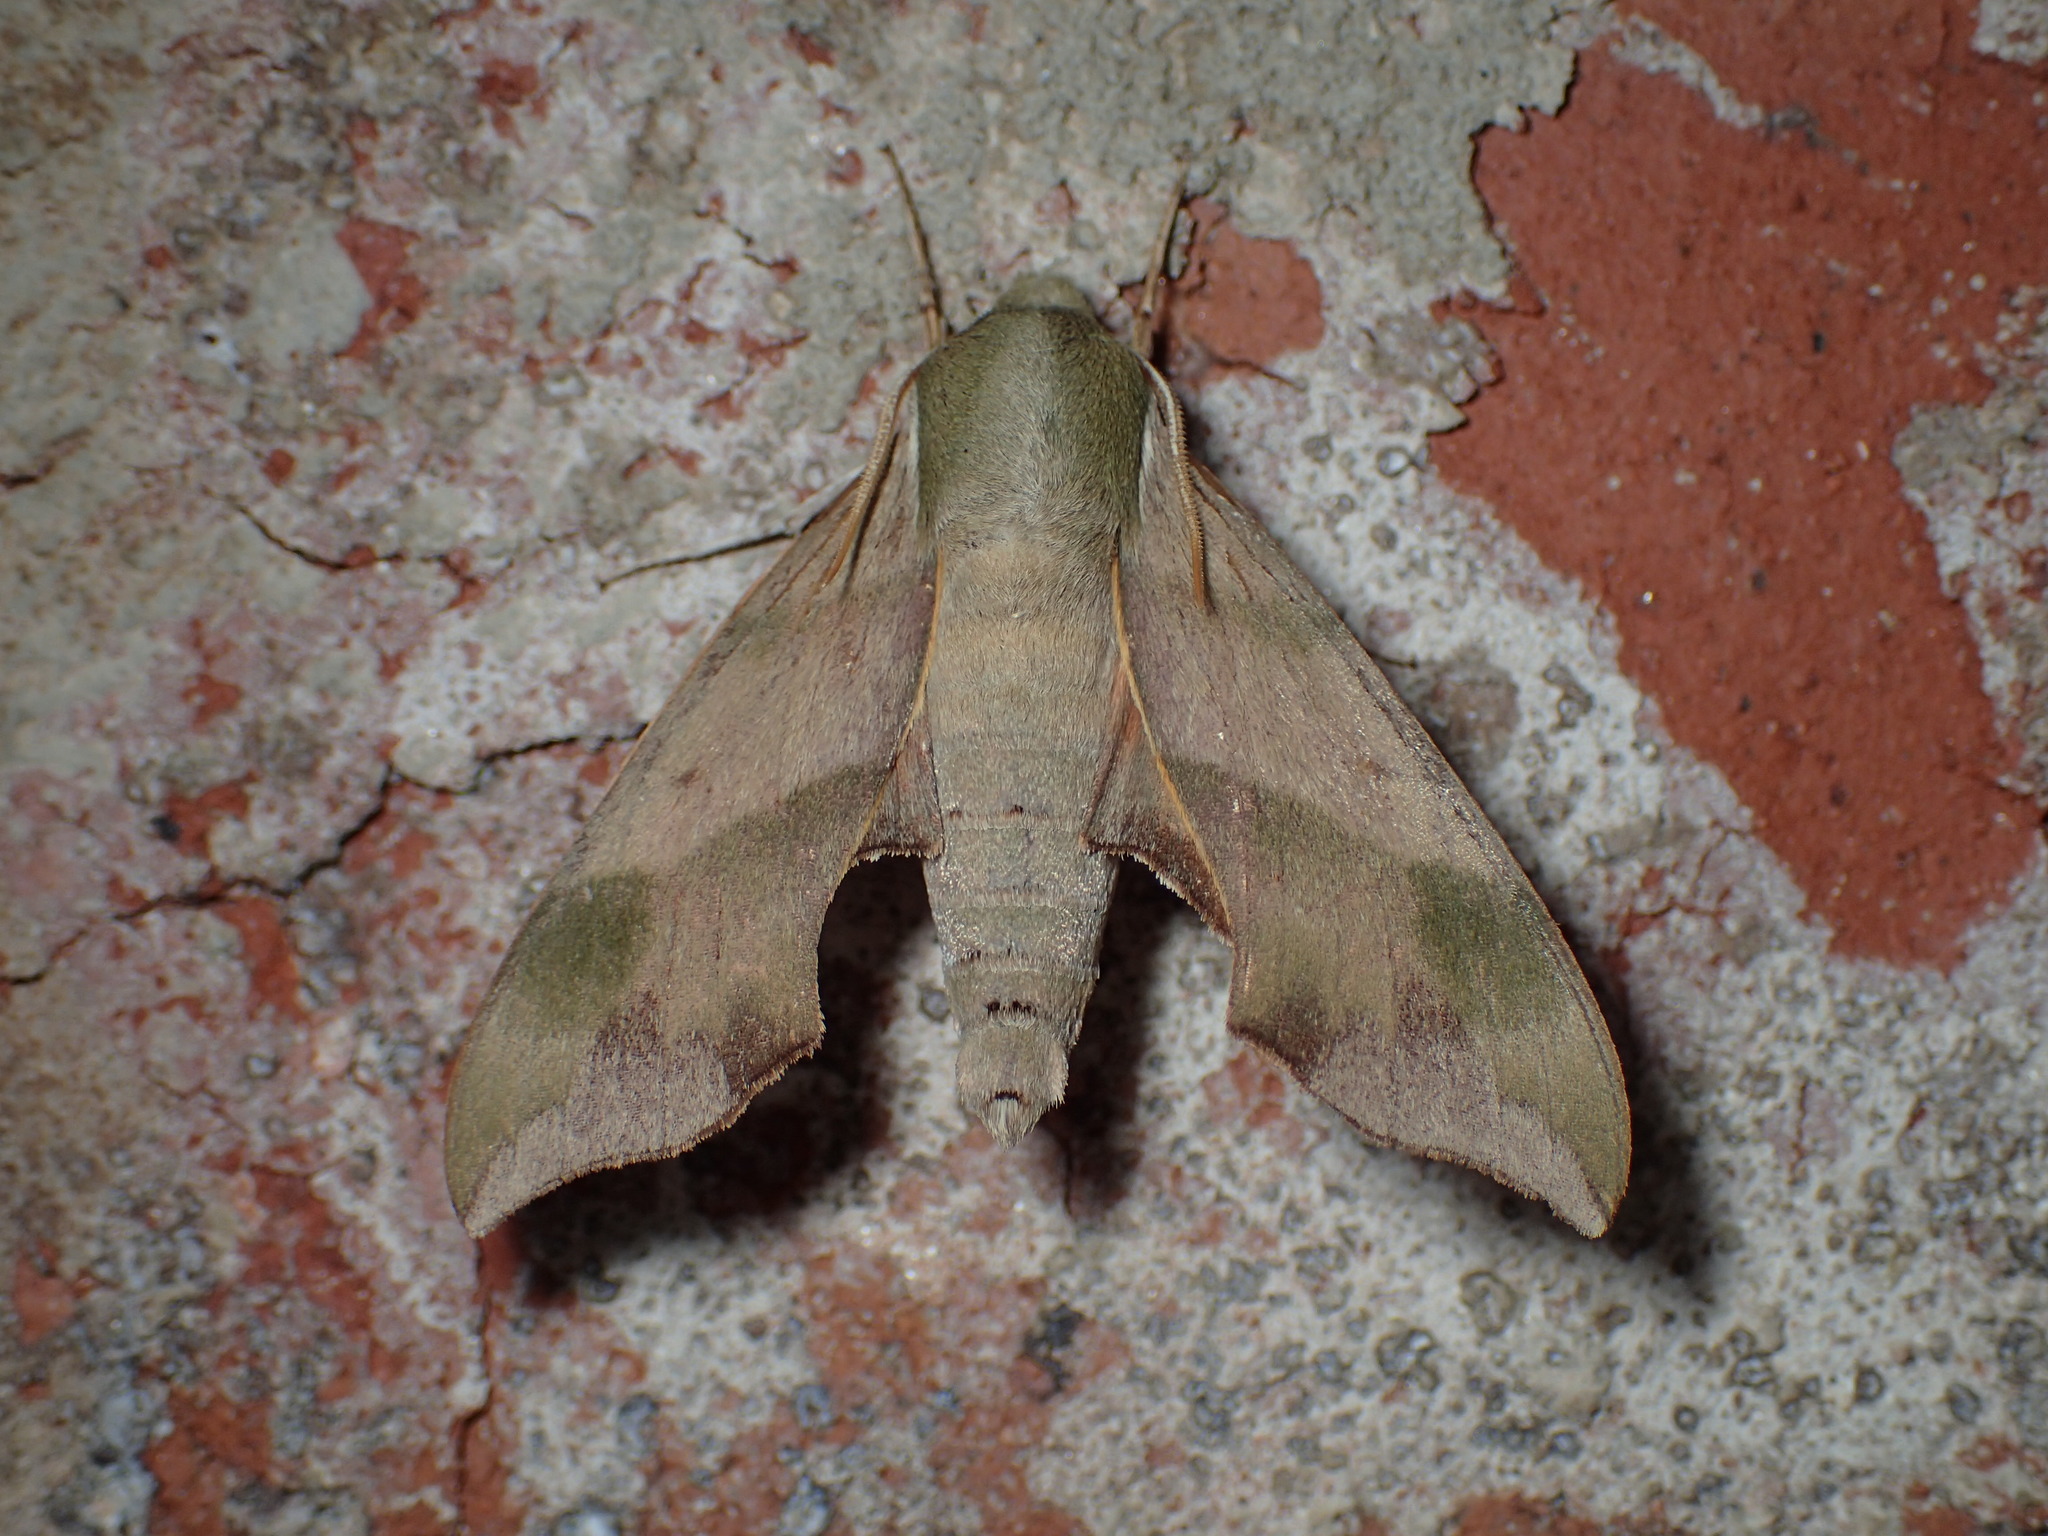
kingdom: Animalia
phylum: Arthropoda
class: Insecta
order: Lepidoptera
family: Sphingidae
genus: Darapsa
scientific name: Darapsa myron
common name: Hog sphinx
